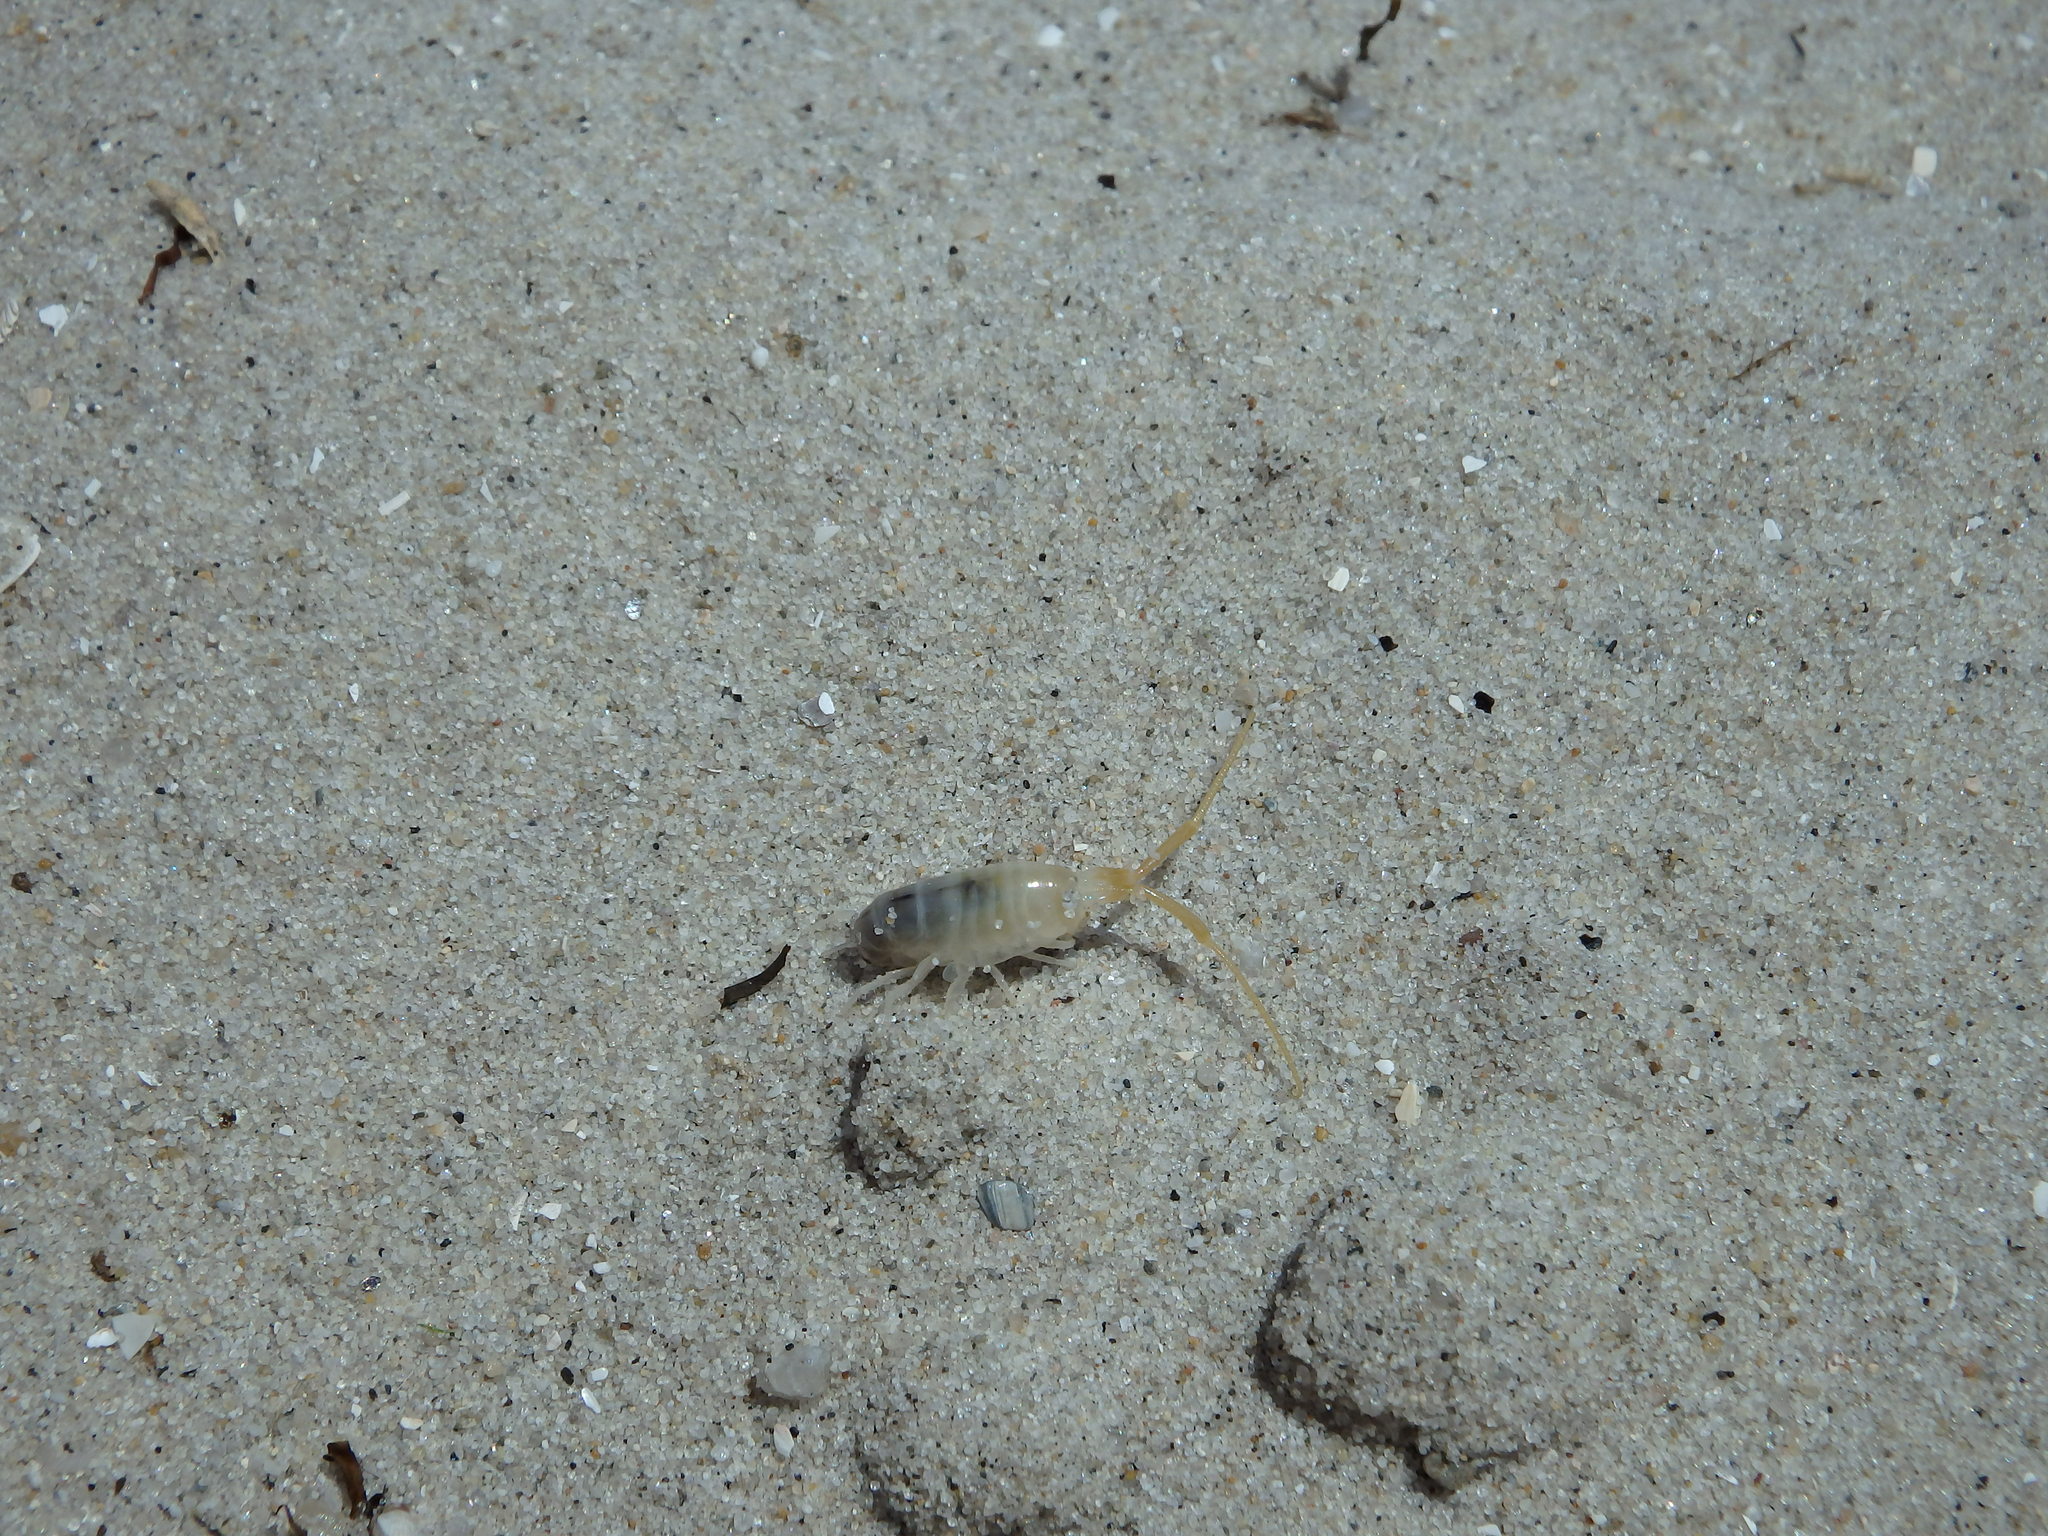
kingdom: Animalia
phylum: Arthropoda
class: Malacostraca
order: Amphipoda
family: Talitridae
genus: Talitrus
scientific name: Talitrus saltator
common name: Sand hopper
